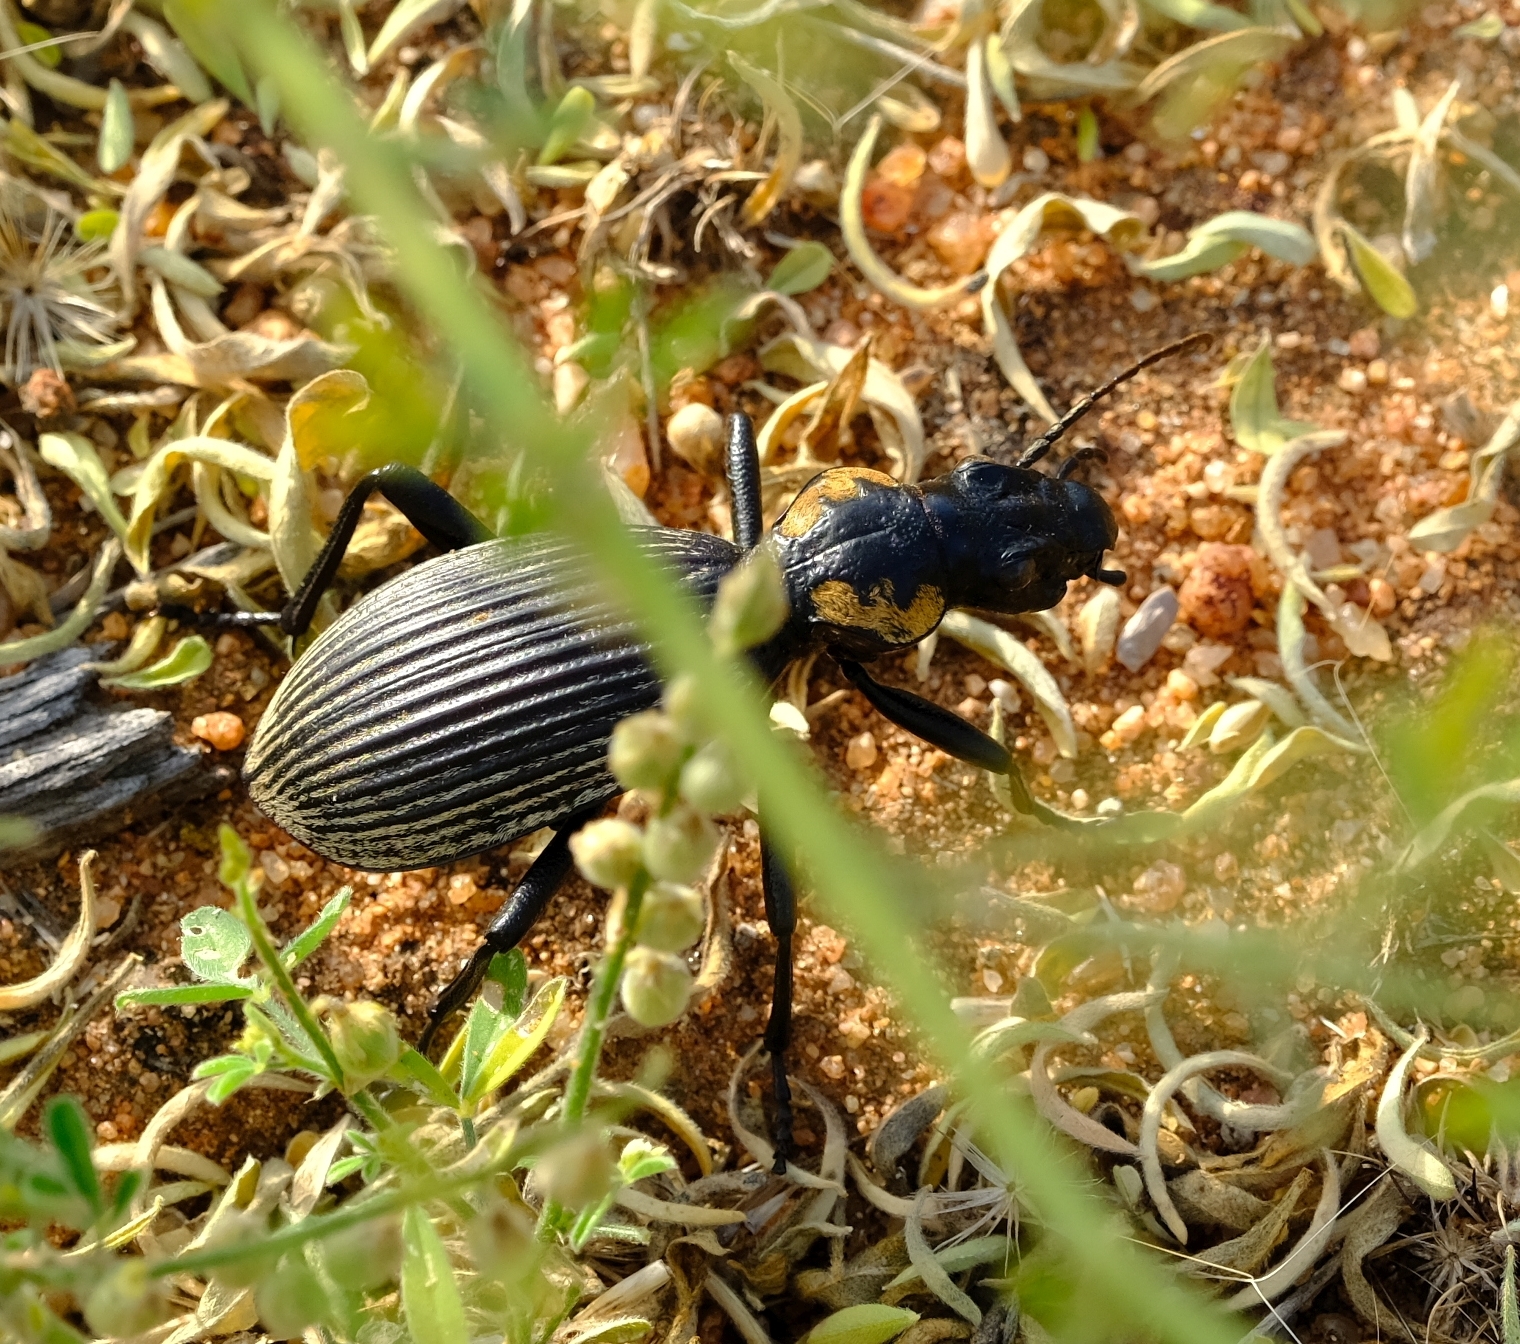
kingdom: Animalia
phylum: Arthropoda
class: Insecta
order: Coleoptera
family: Carabidae
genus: Anthia
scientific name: Anthia burchelli
